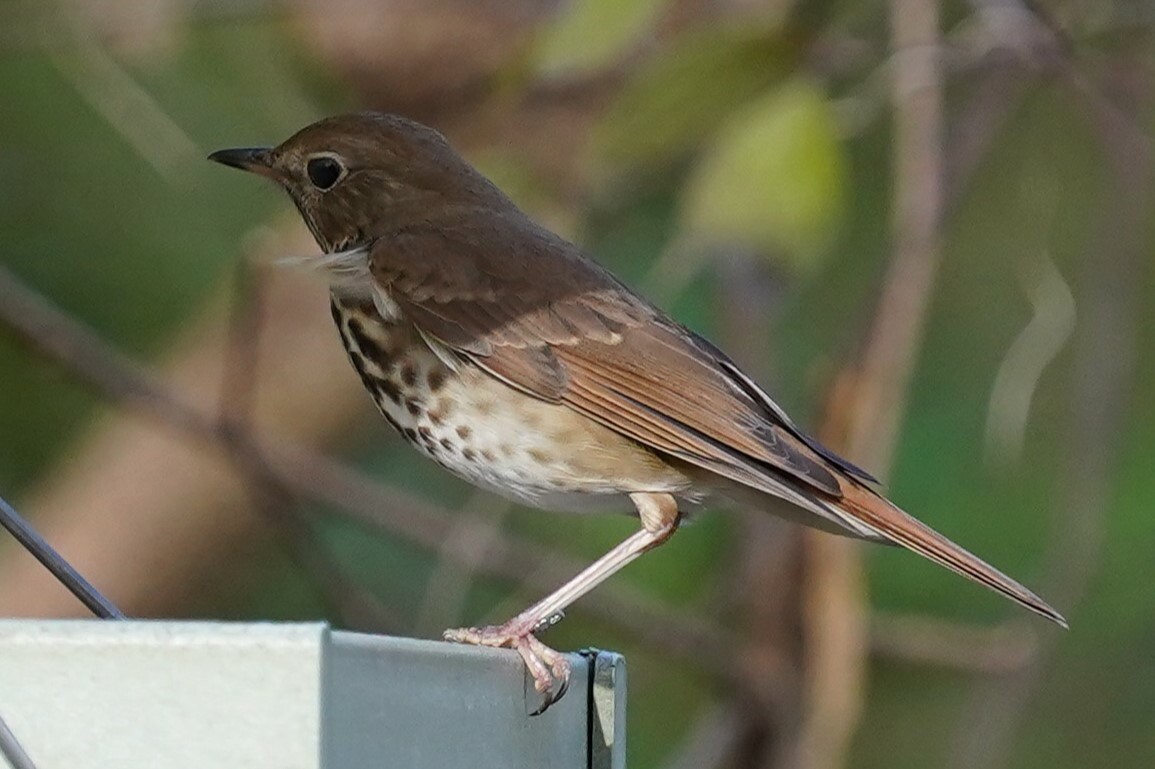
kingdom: Animalia
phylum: Chordata
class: Aves
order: Passeriformes
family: Turdidae
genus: Catharus
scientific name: Catharus guttatus
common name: Hermit thrush
